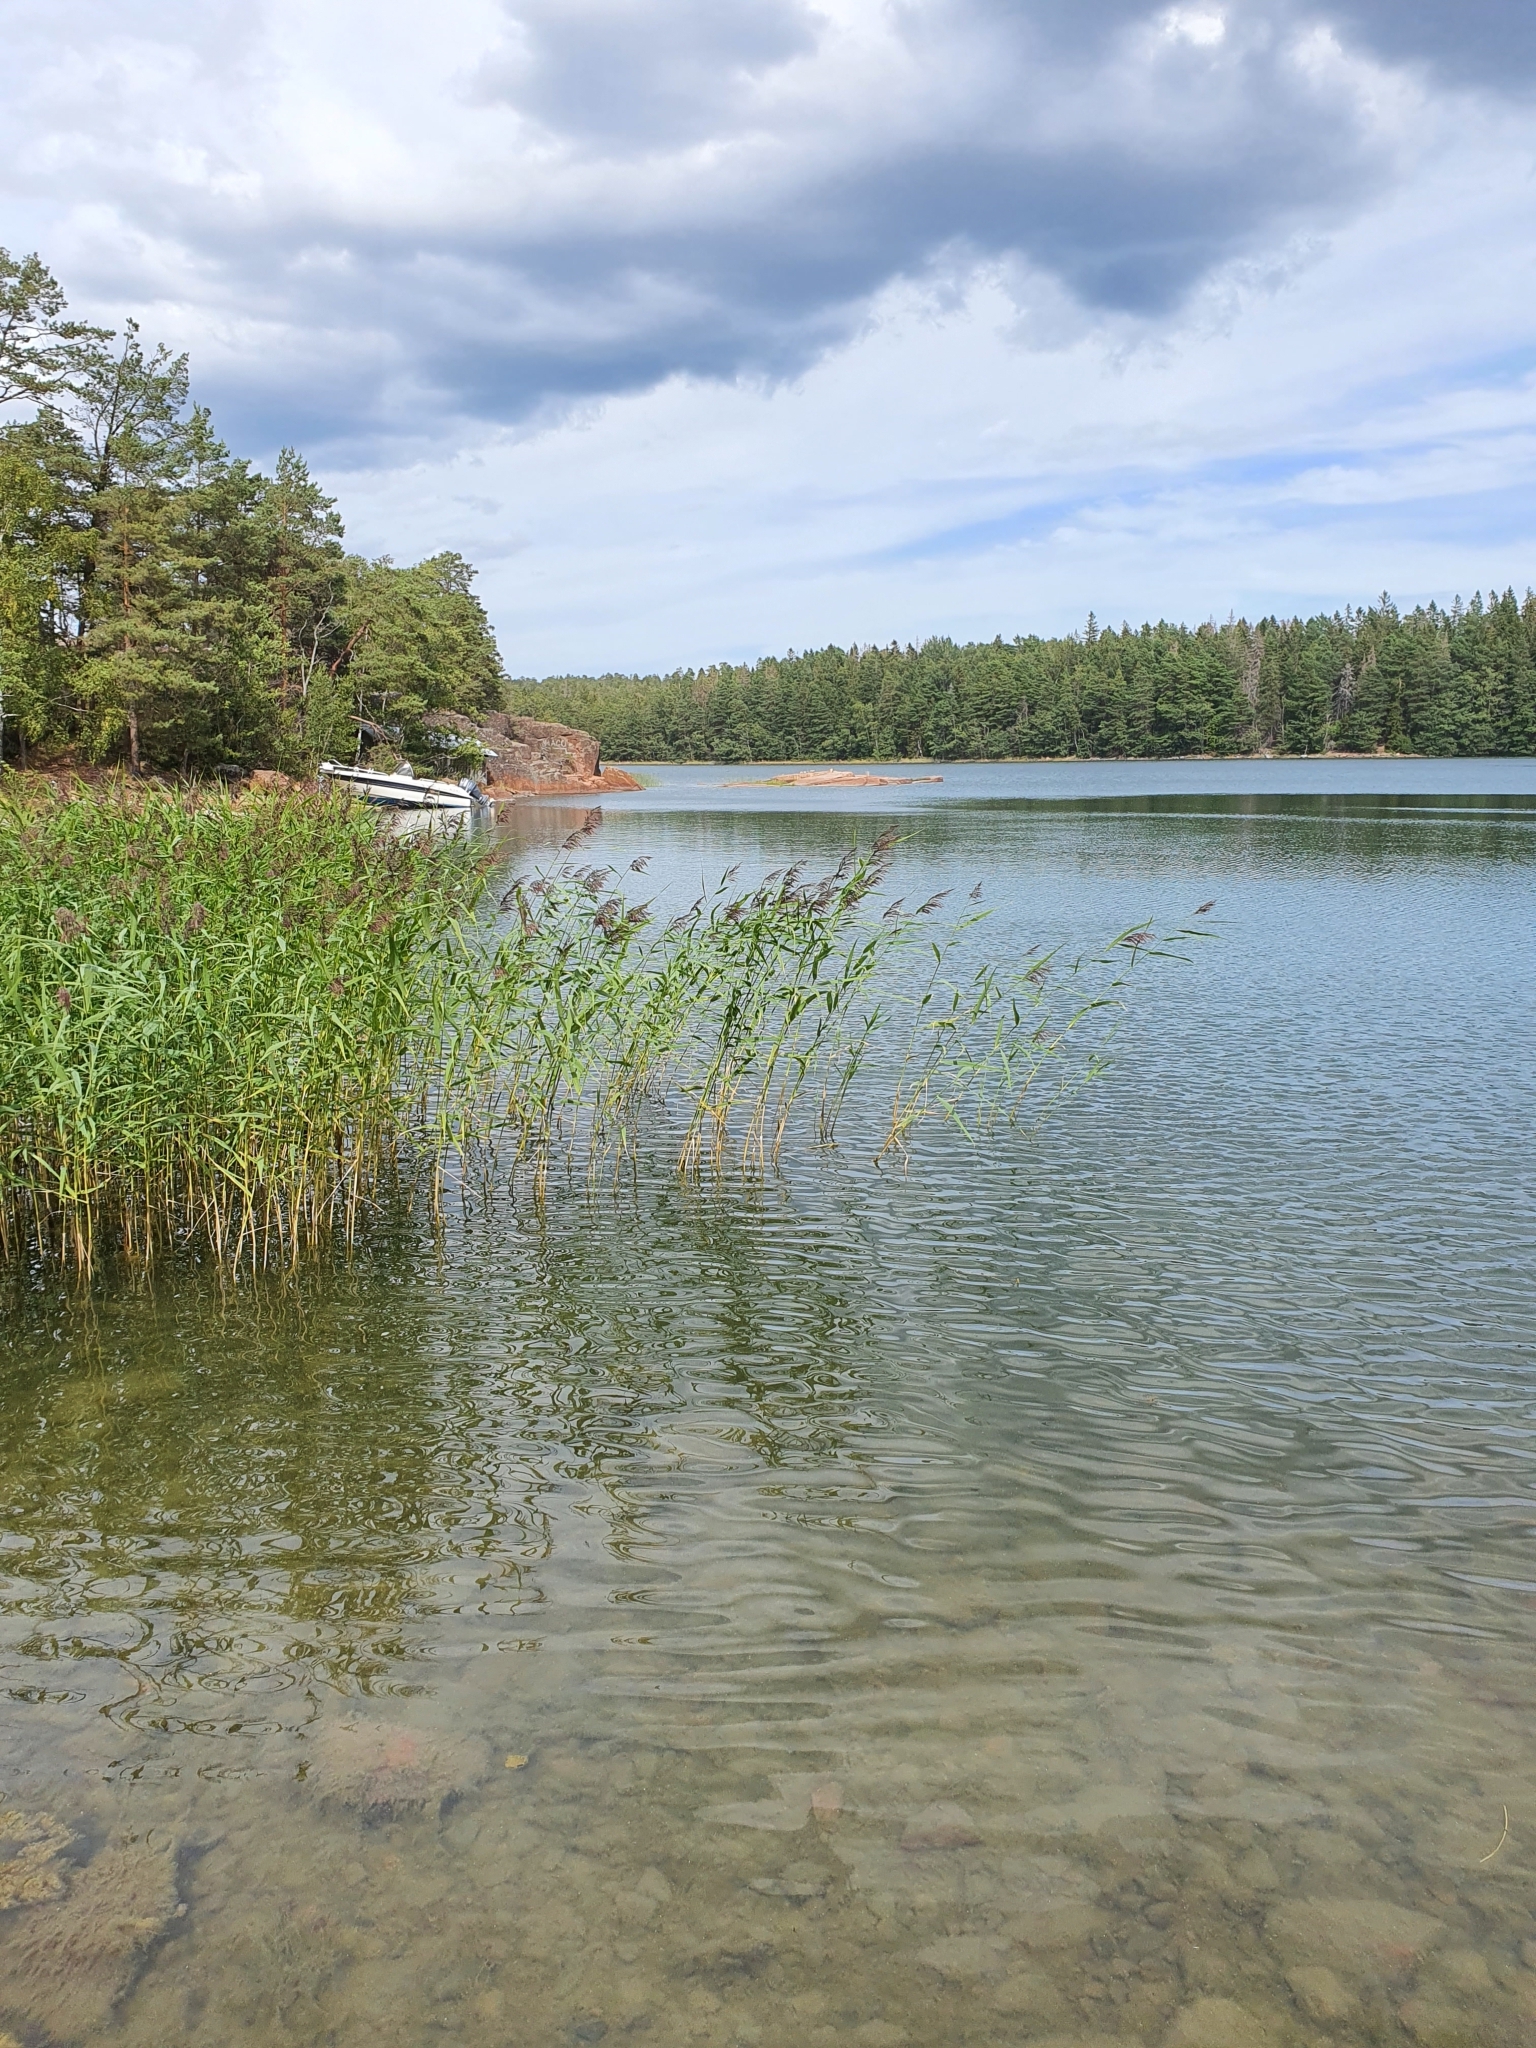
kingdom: Plantae
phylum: Tracheophyta
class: Liliopsida
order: Poales
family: Poaceae
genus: Phragmites
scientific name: Phragmites australis
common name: Common reed
